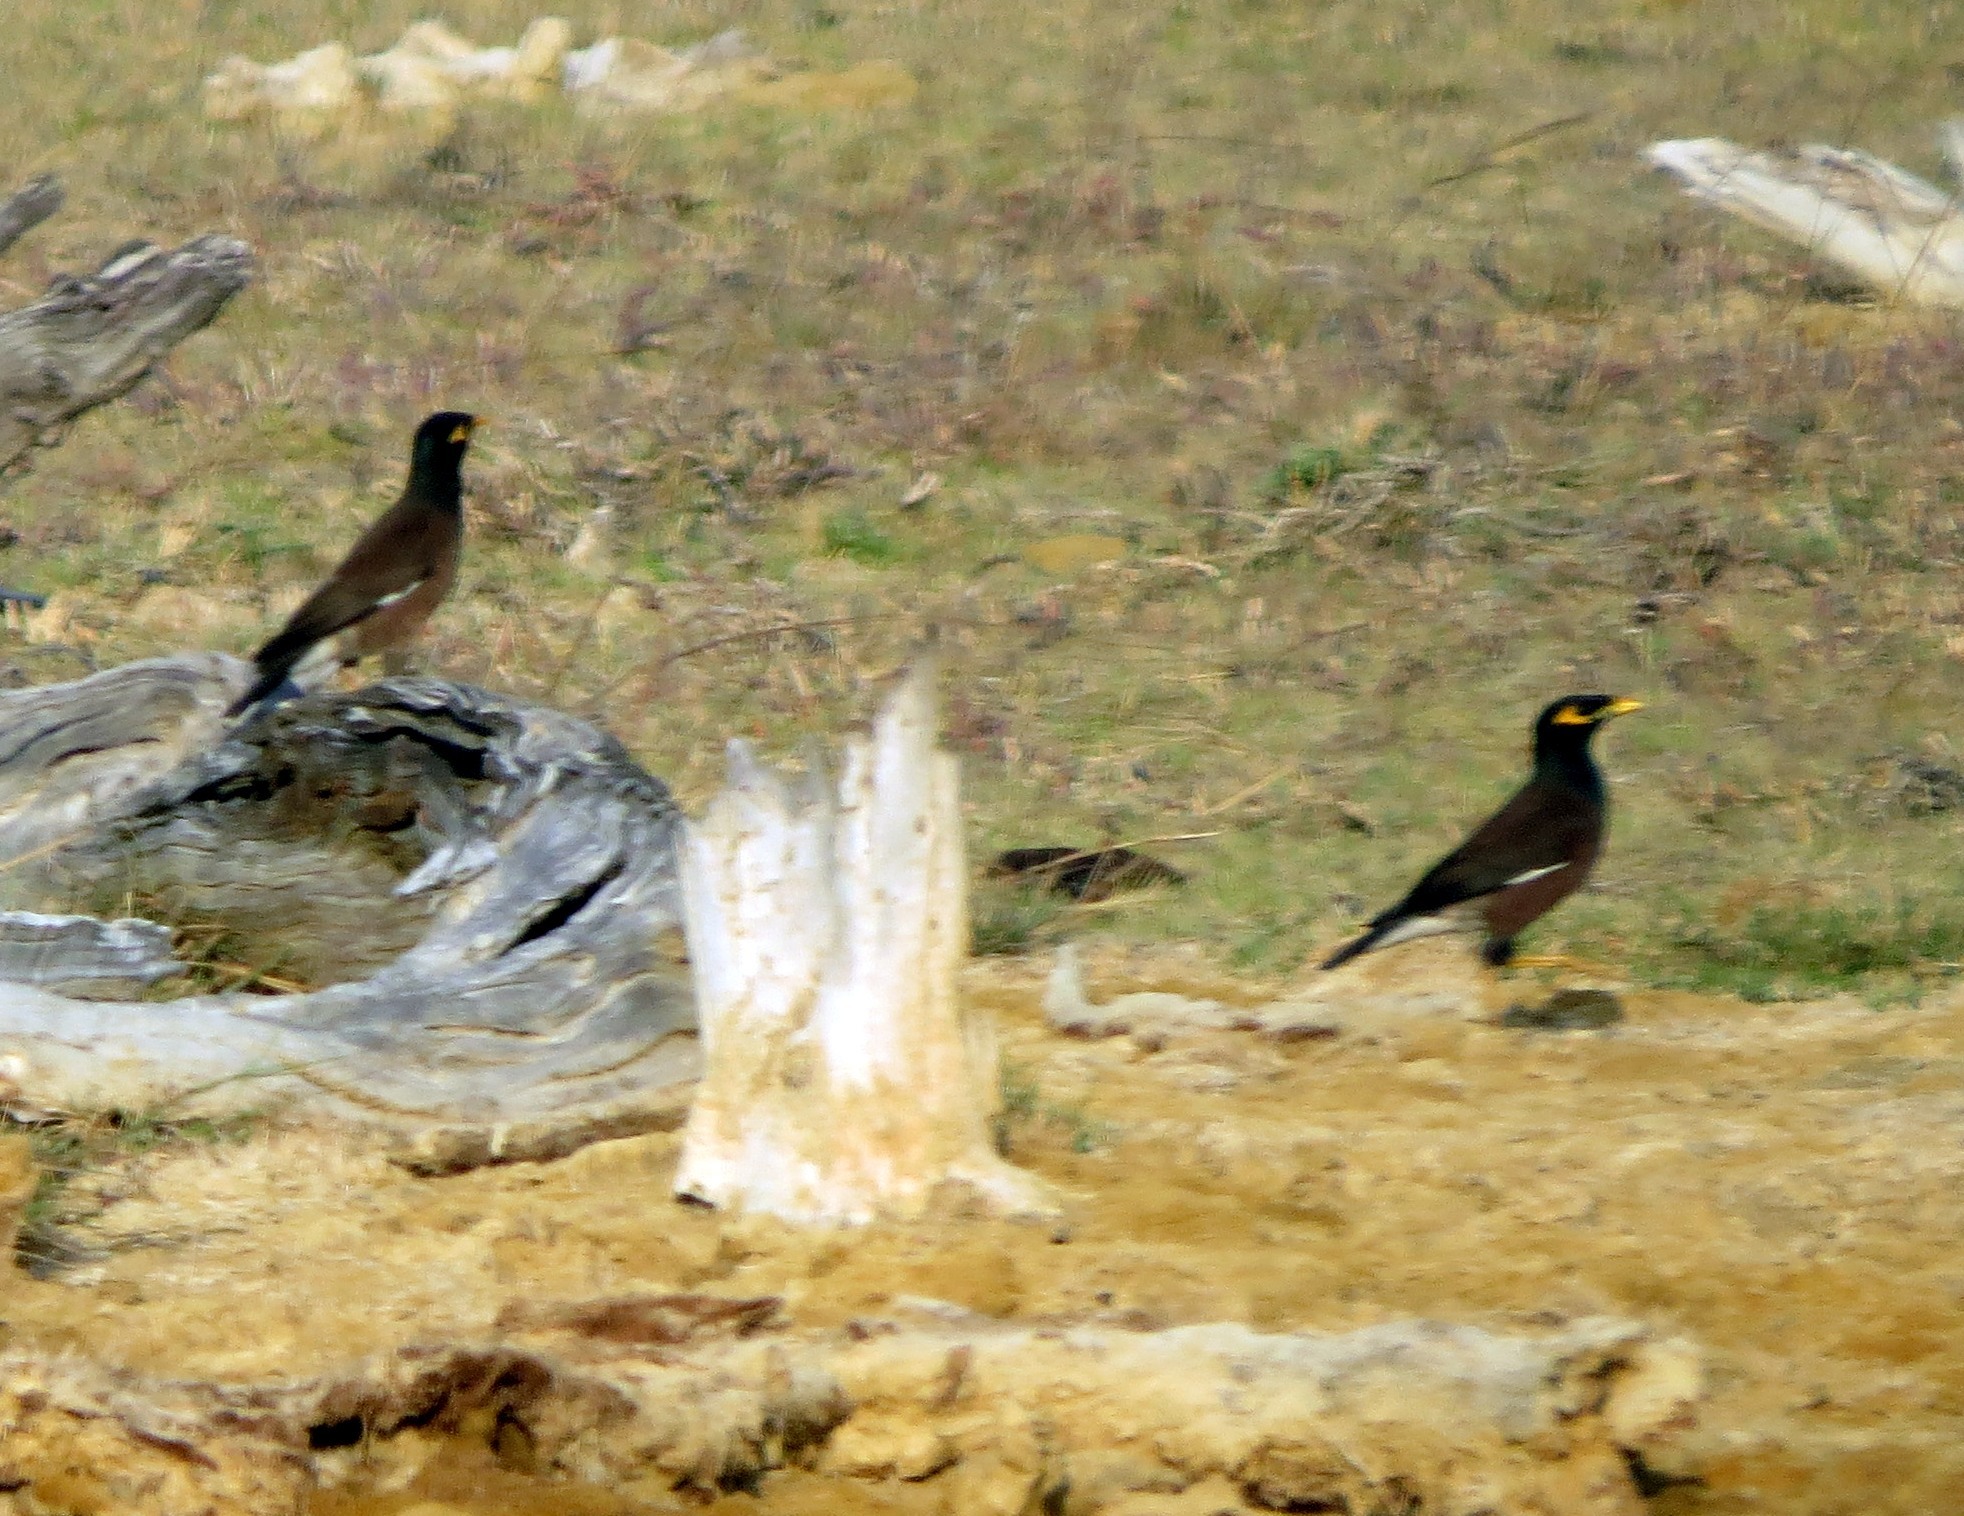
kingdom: Animalia
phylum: Chordata
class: Aves
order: Passeriformes
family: Sturnidae
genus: Acridotheres
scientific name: Acridotheres tristis
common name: Common myna
